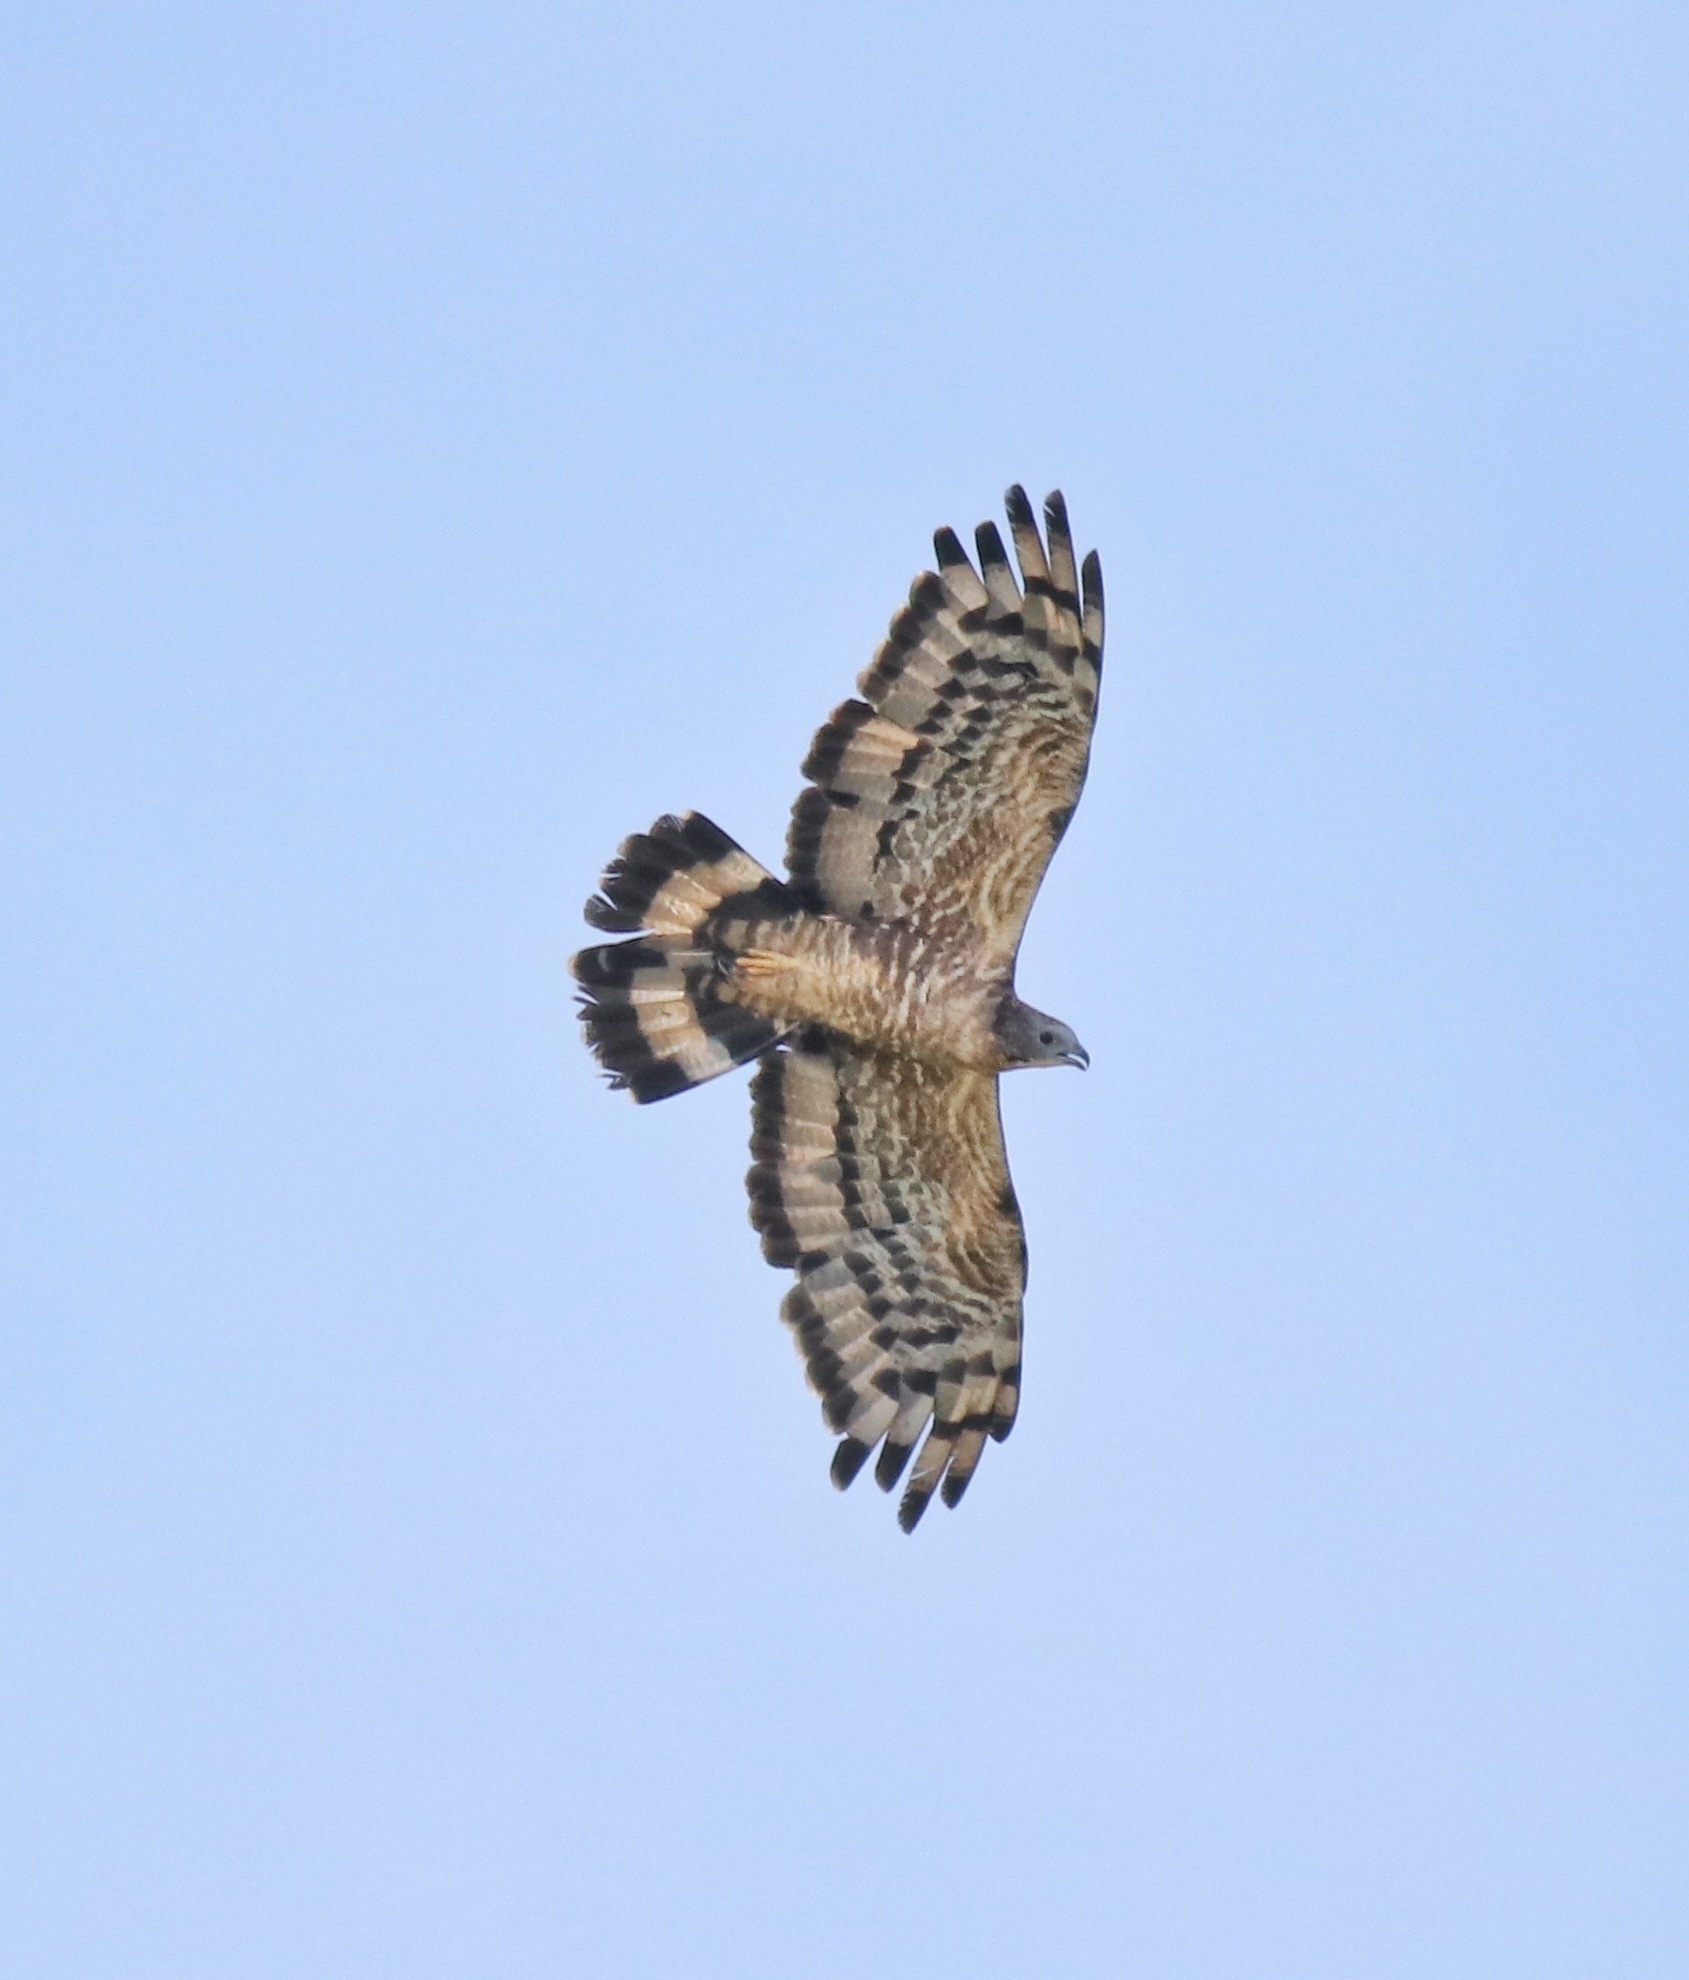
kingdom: Animalia
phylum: Chordata
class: Aves
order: Accipitriformes
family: Accipitridae
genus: Pernis
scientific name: Pernis ptilorhynchus
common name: Crested honey buzzard
